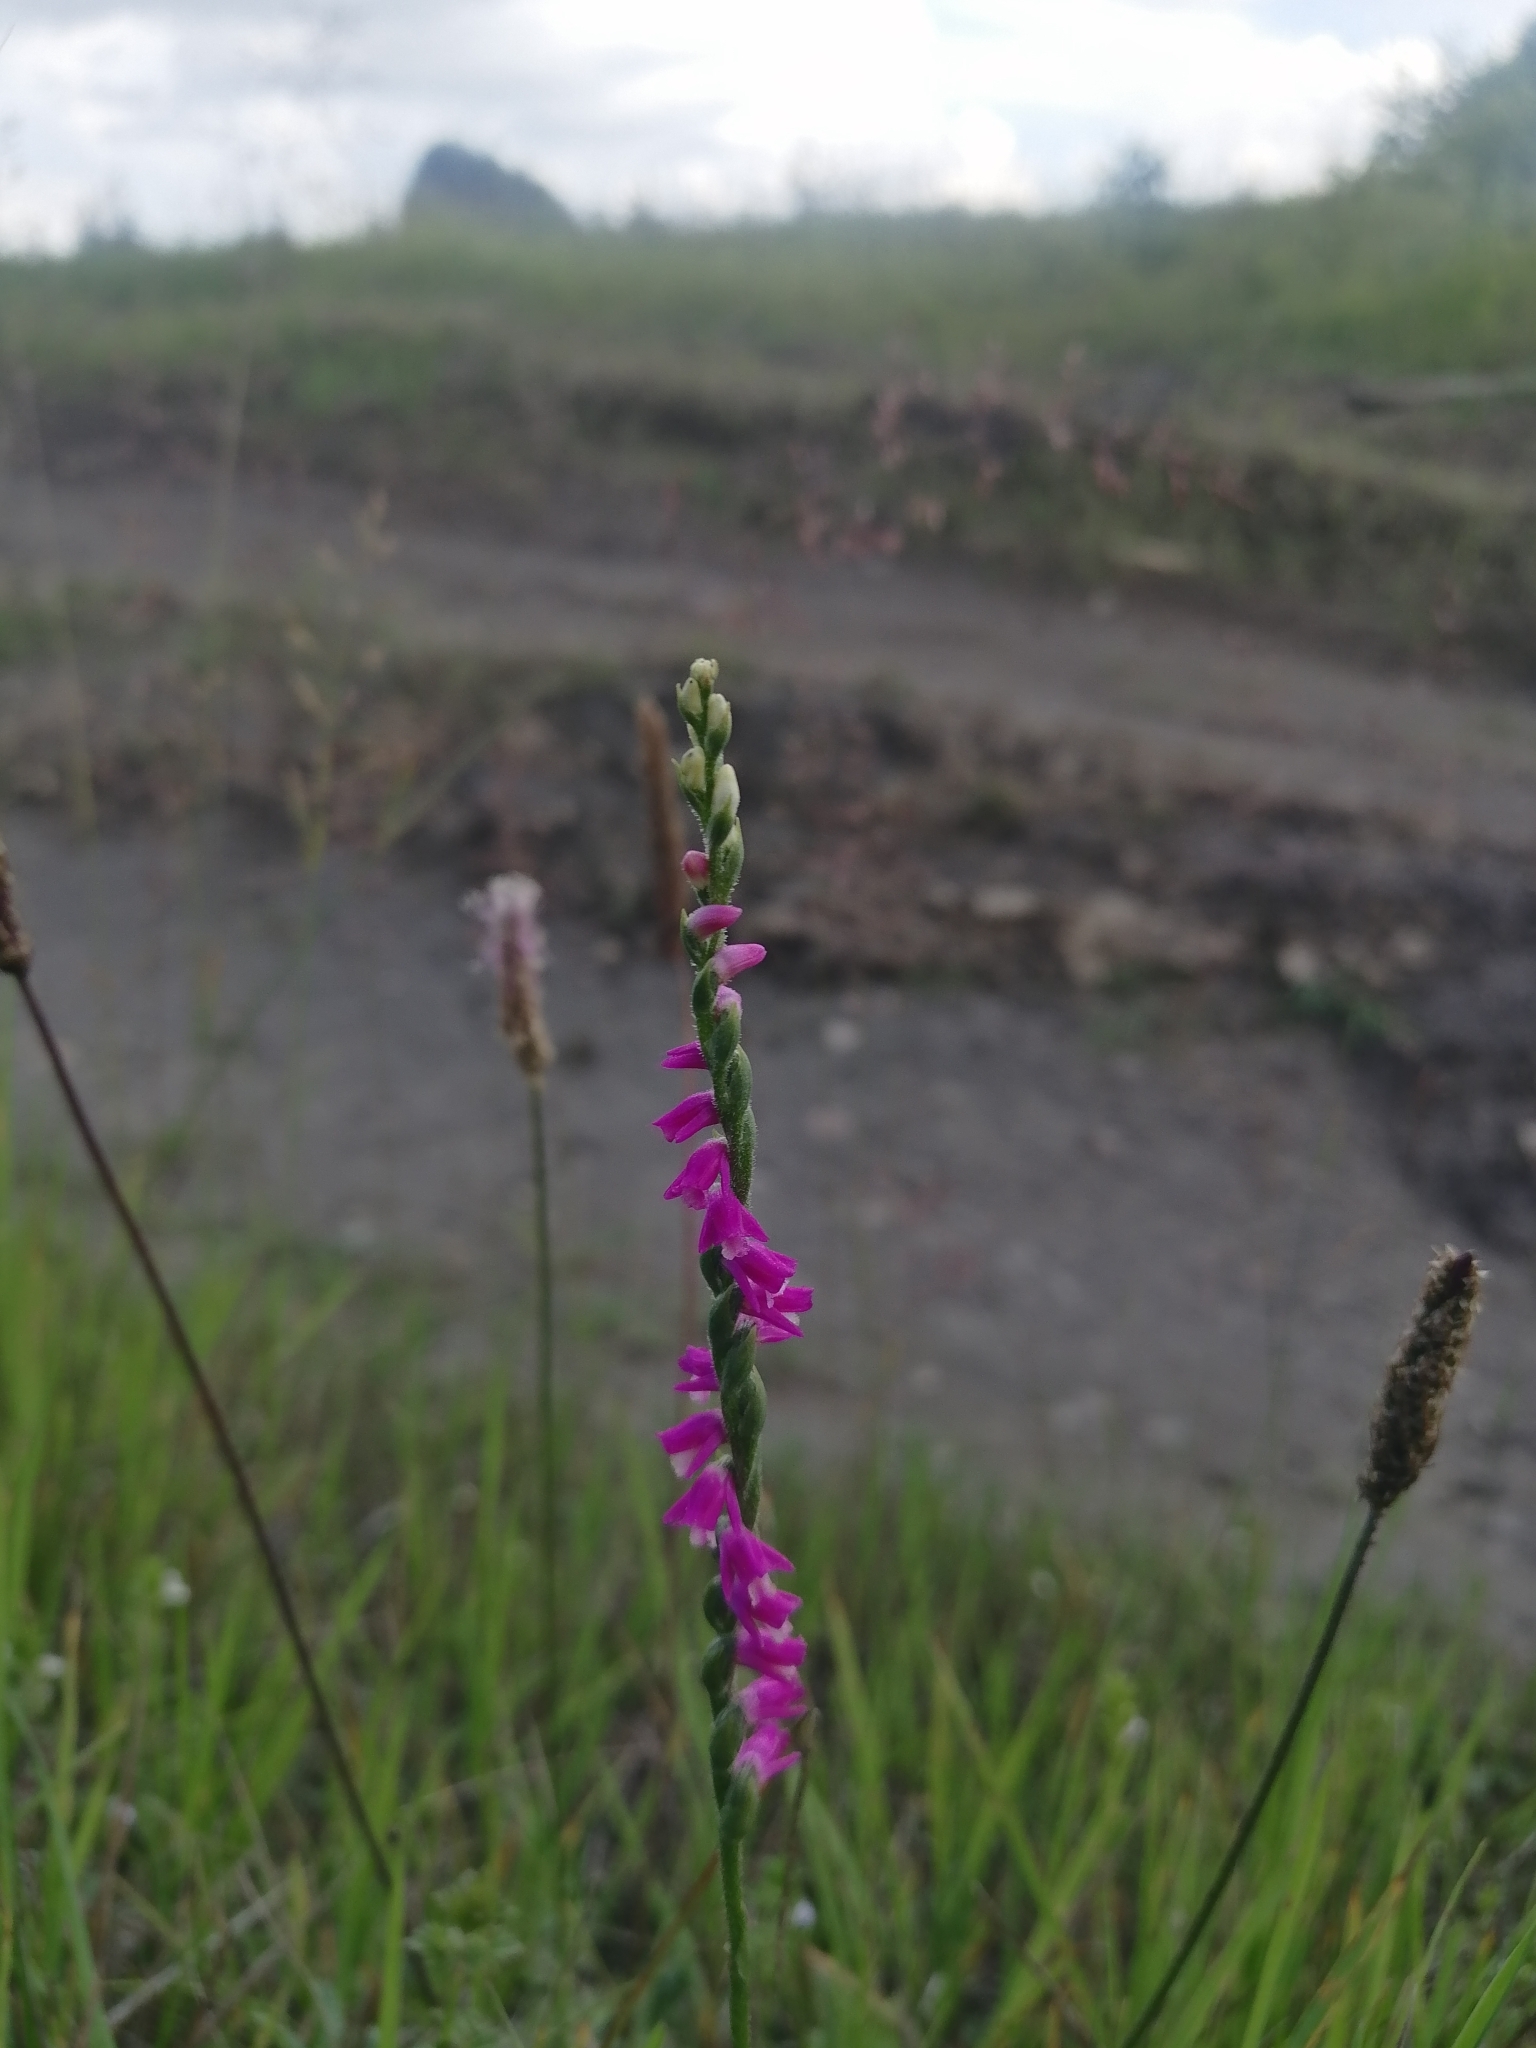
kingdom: Plantae
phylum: Tracheophyta
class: Liliopsida
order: Asparagales
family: Orchidaceae
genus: Spiranthes
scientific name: Spiranthes australis
